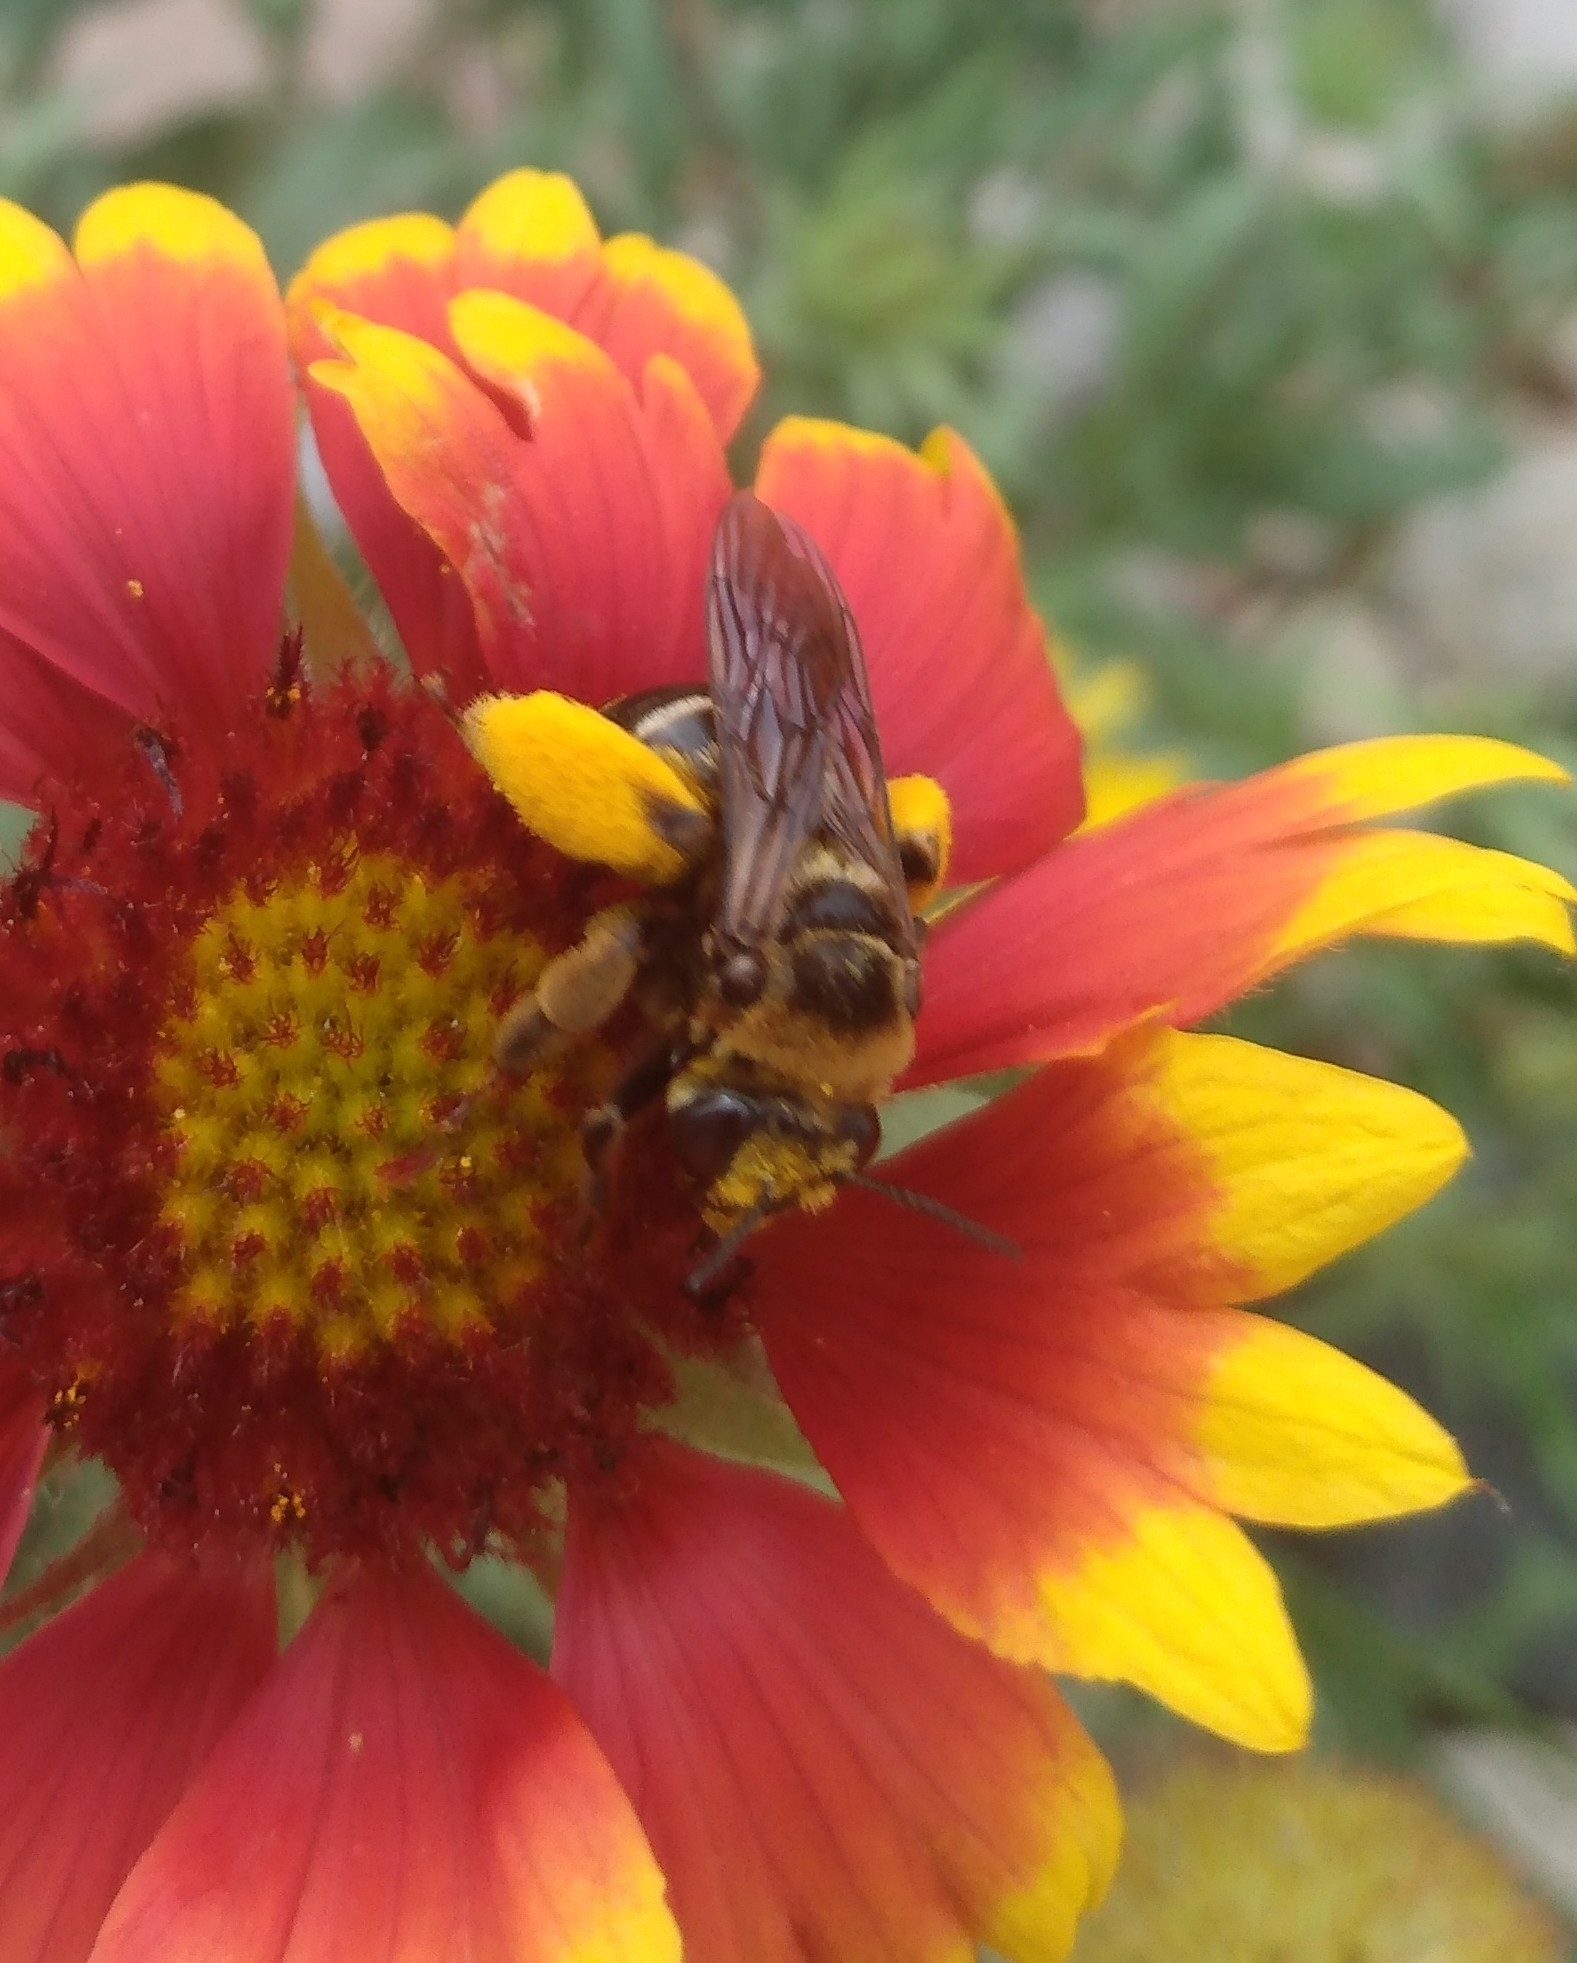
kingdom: Animalia
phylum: Arthropoda
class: Insecta
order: Hymenoptera
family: Apidae
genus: Svastra
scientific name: Svastra obliqua
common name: Oblique longhorn
